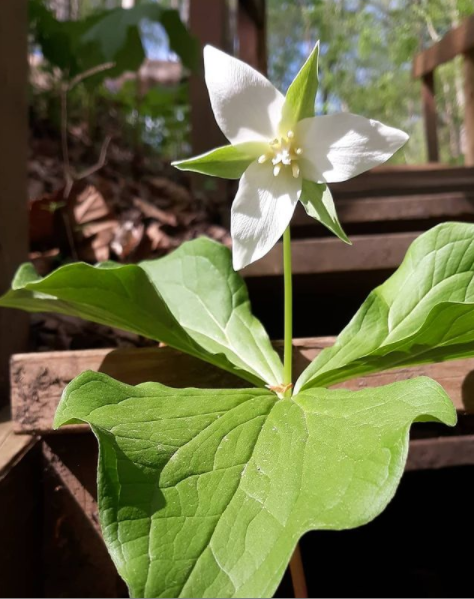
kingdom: Plantae
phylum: Tracheophyta
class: Liliopsida
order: Liliales
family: Melanthiaceae
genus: Trillium
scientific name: Trillium flexipes
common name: Drooping trillium
